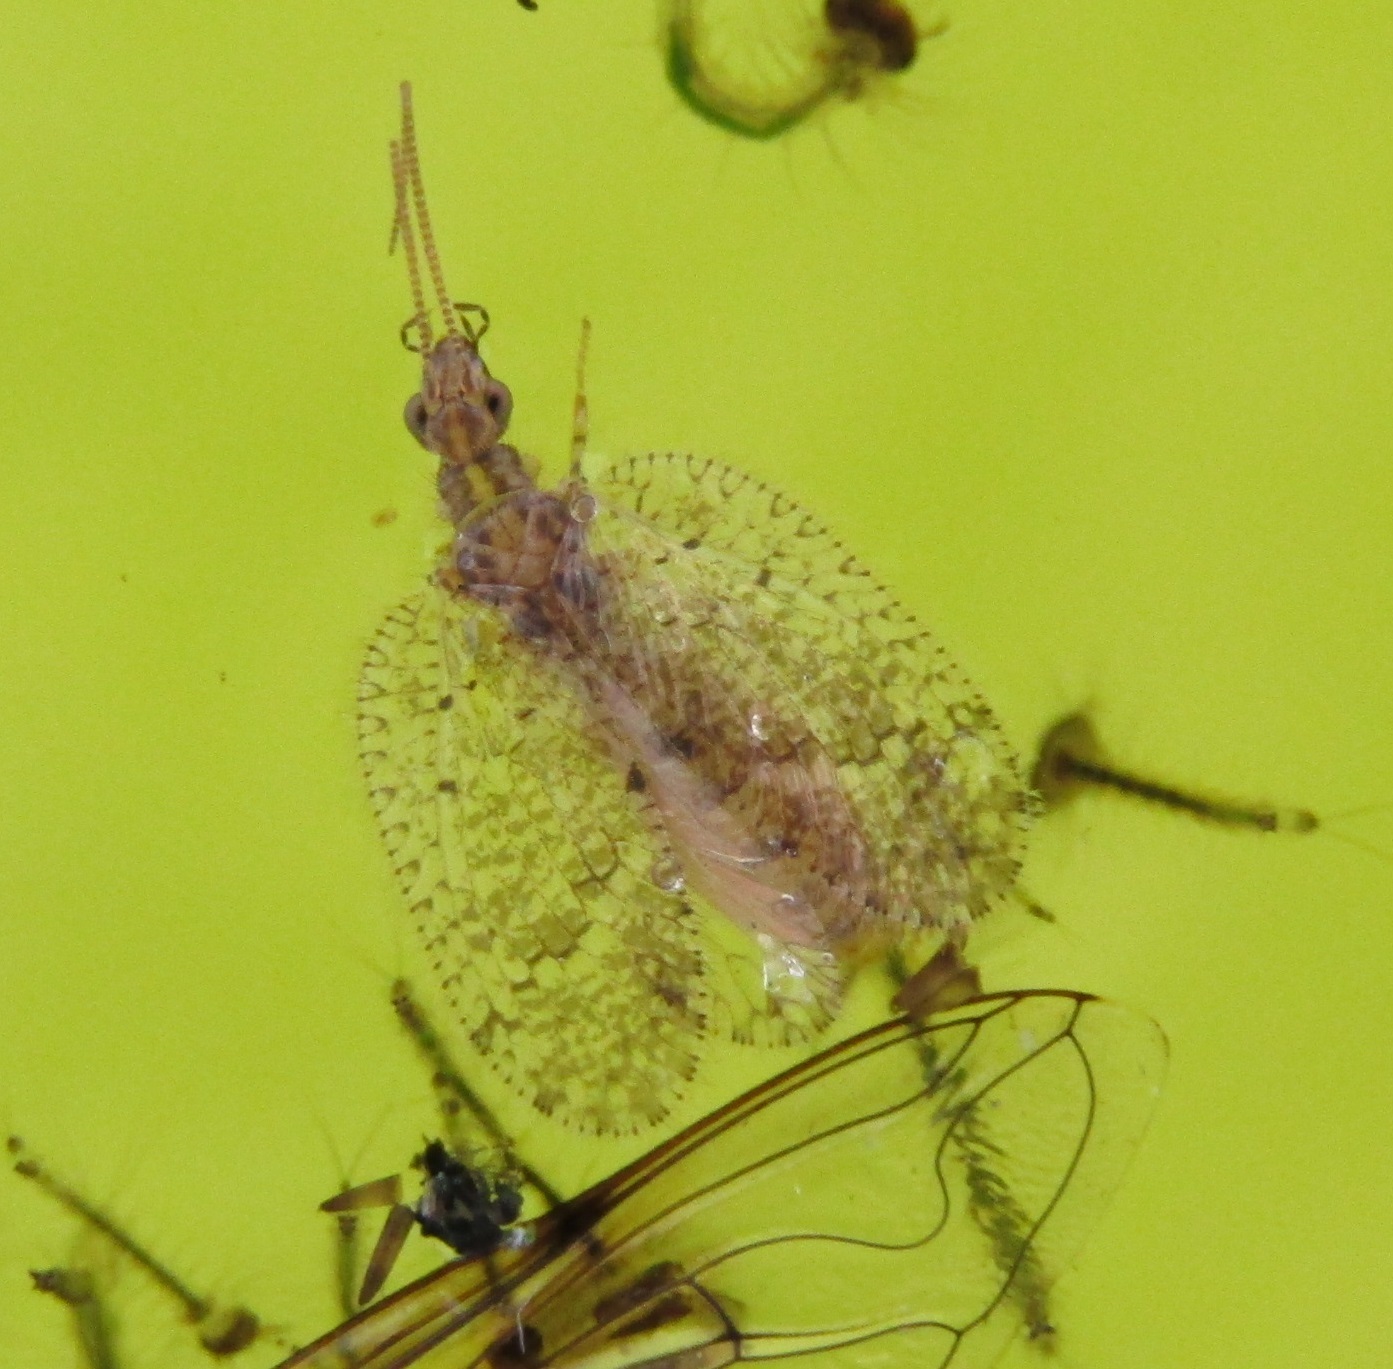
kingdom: Animalia
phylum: Arthropoda
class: Insecta
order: Neuroptera
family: Hemerobiidae
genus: Psectra
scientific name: Psectra nakaharai
